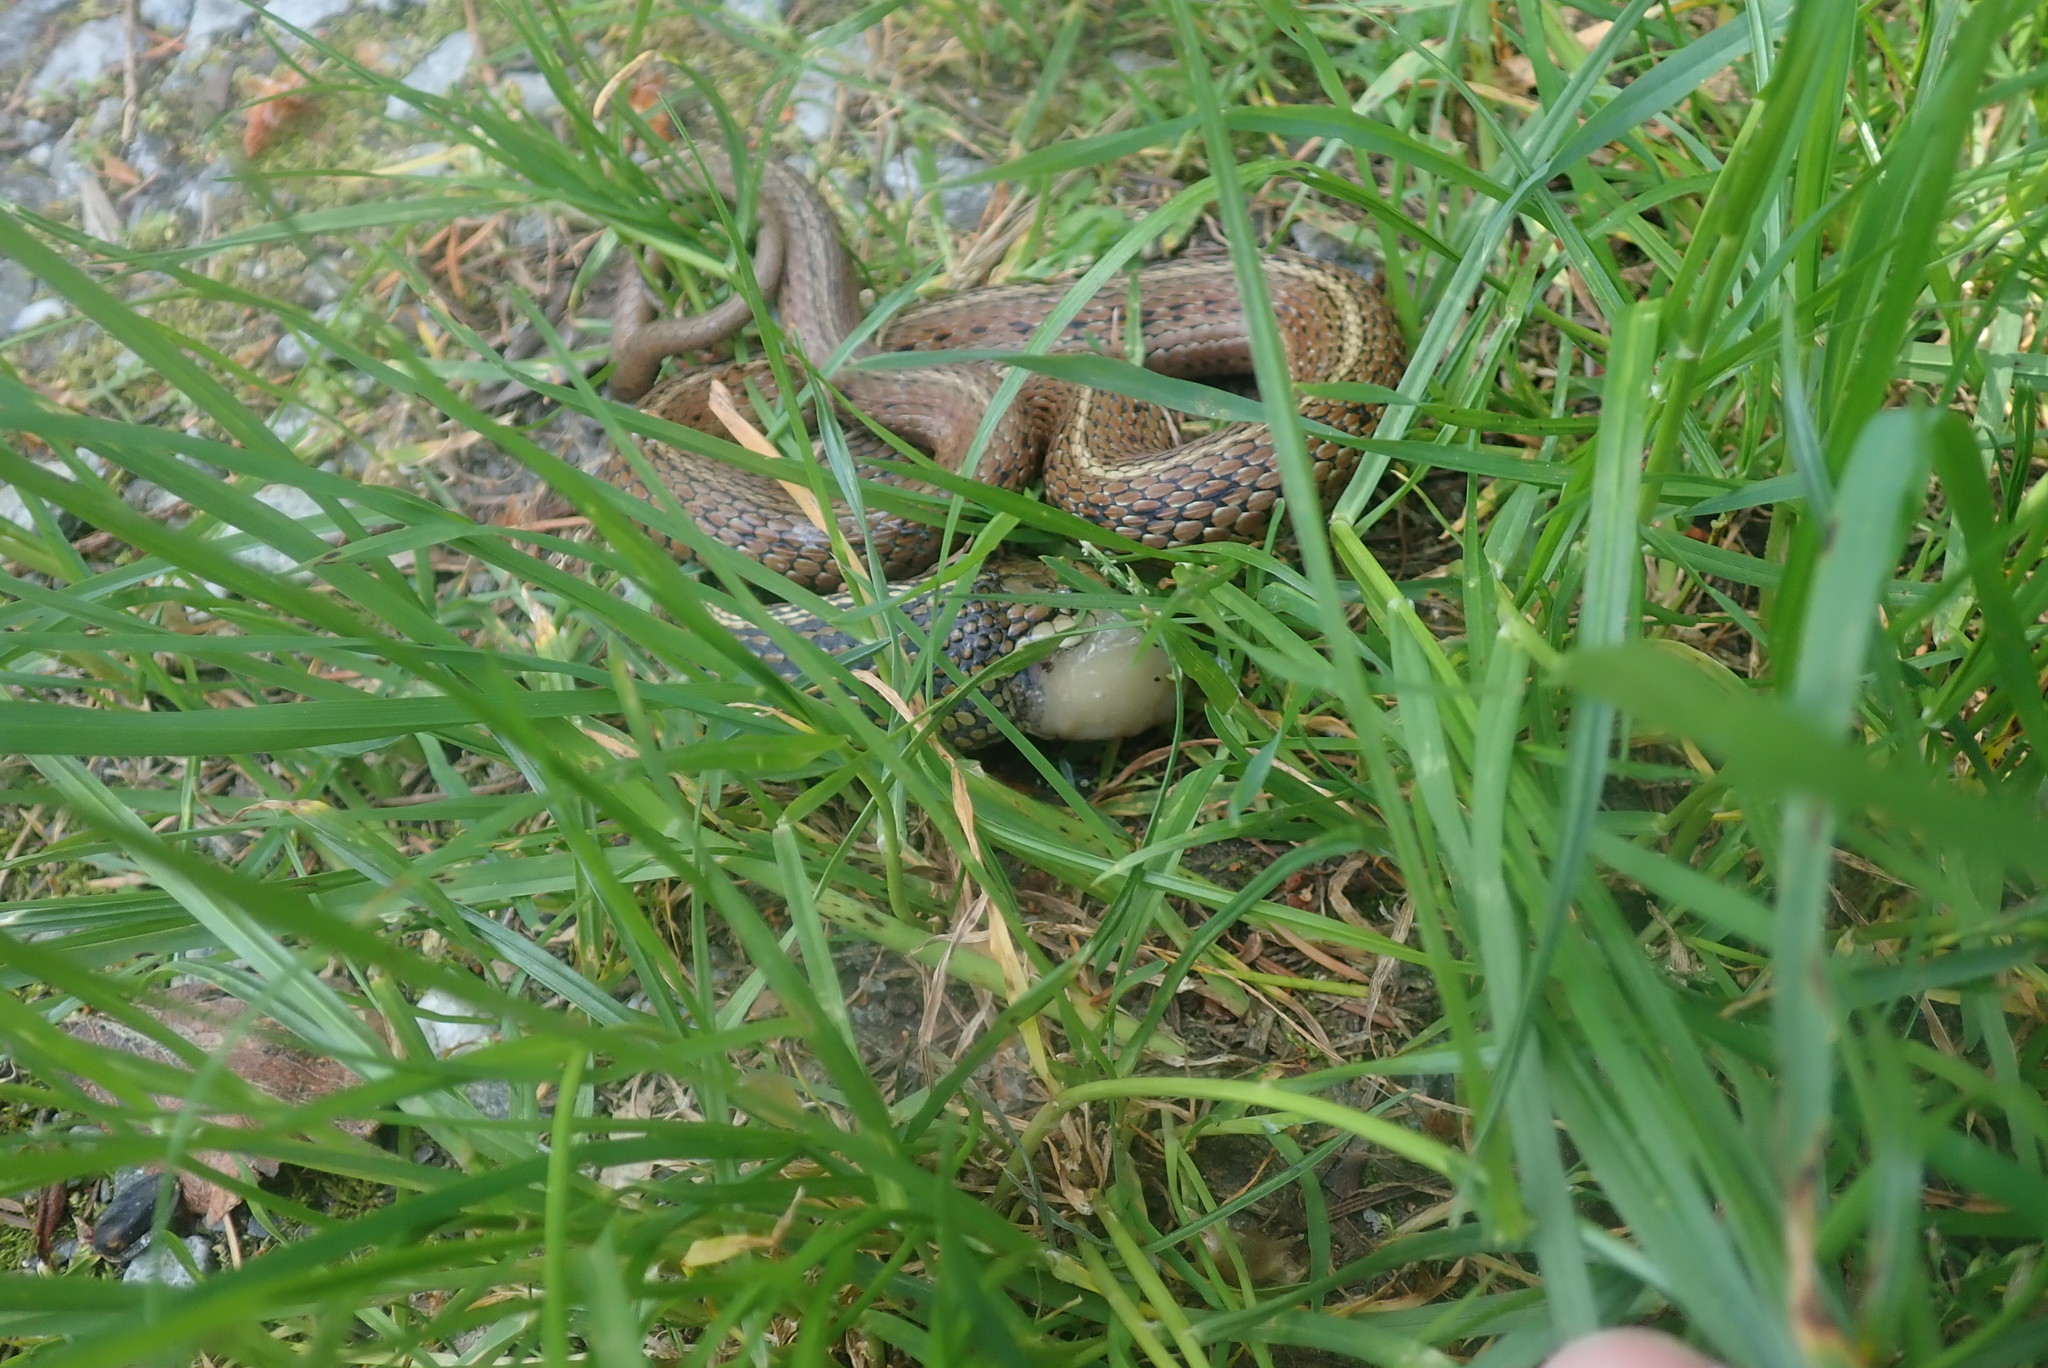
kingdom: Animalia
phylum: Chordata
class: Squamata
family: Colubridae
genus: Thamnophis
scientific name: Thamnophis ordinoides
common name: Northwestern garter snake
